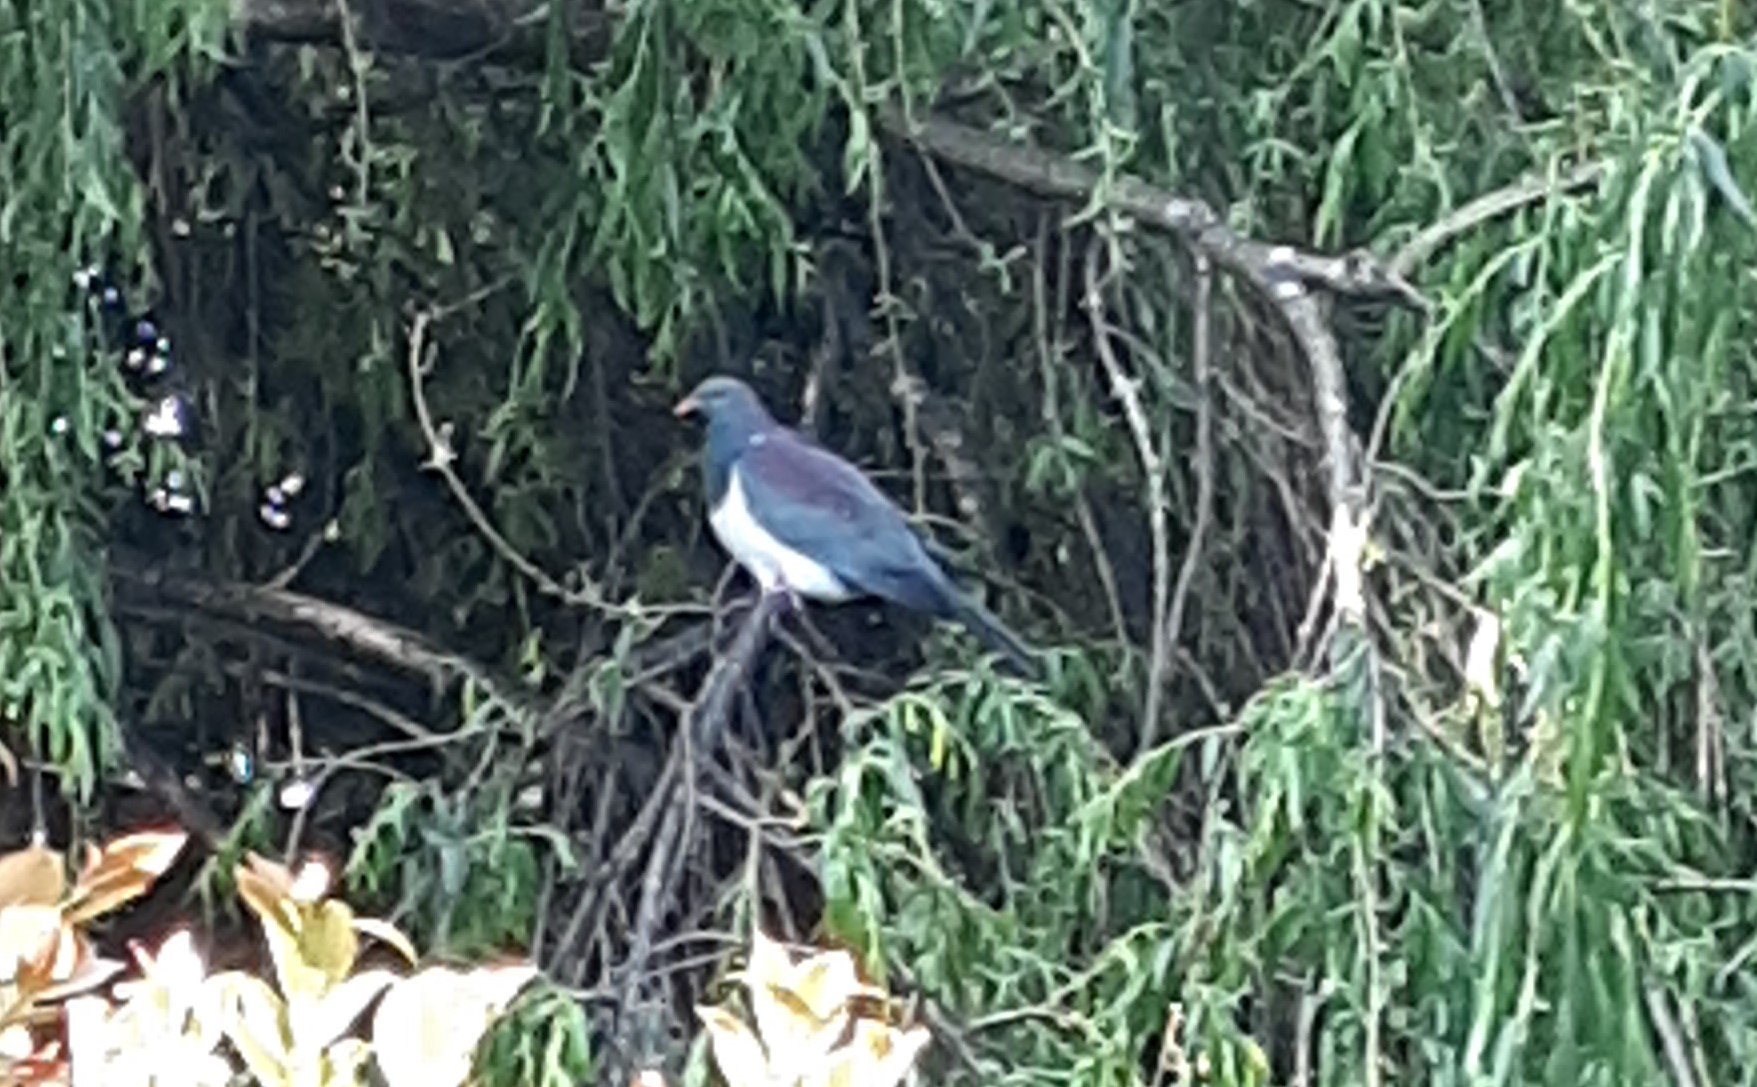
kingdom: Animalia
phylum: Chordata
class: Aves
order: Columbiformes
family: Columbidae
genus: Hemiphaga
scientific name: Hemiphaga novaeseelandiae
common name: New zealand pigeon
